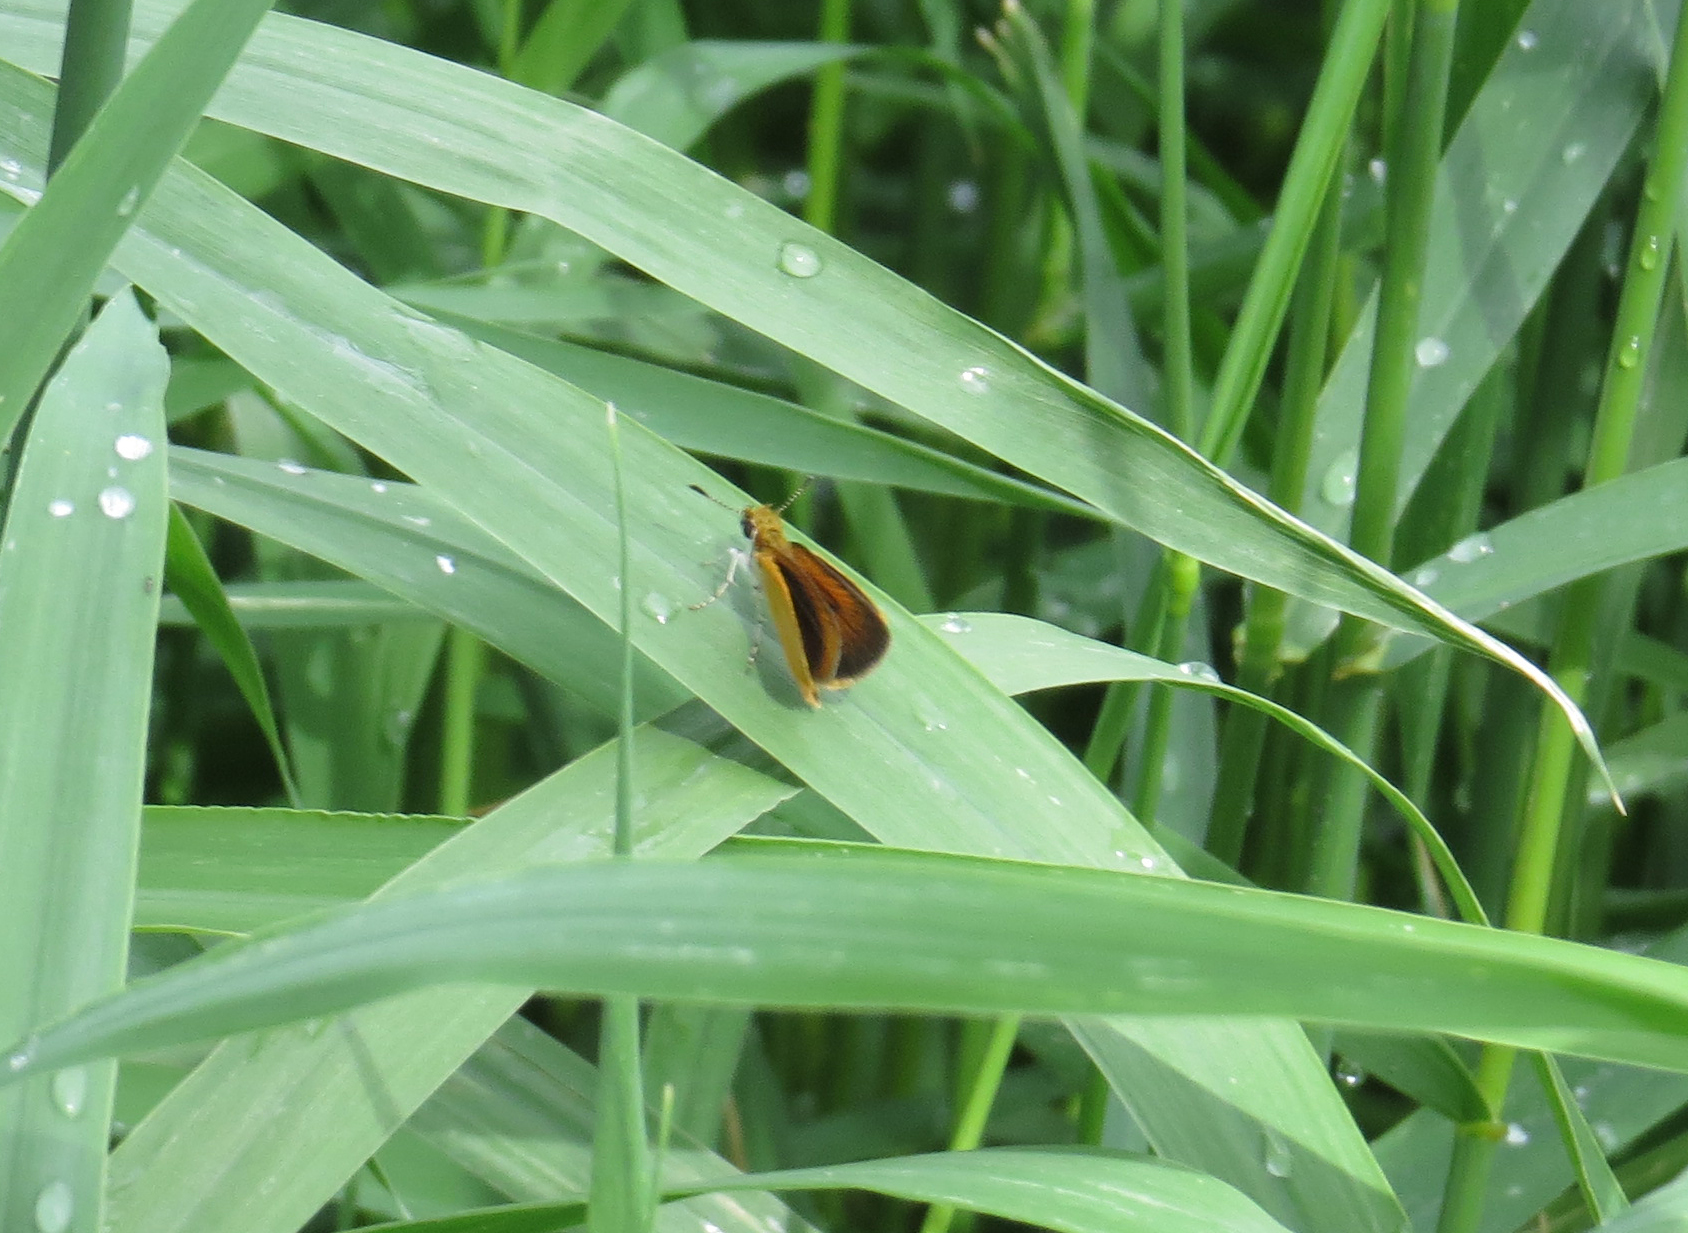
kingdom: Animalia
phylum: Arthropoda
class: Insecta
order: Lepidoptera
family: Hesperiidae
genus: Ancyloxypha
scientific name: Ancyloxypha numitor
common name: Least skipper
